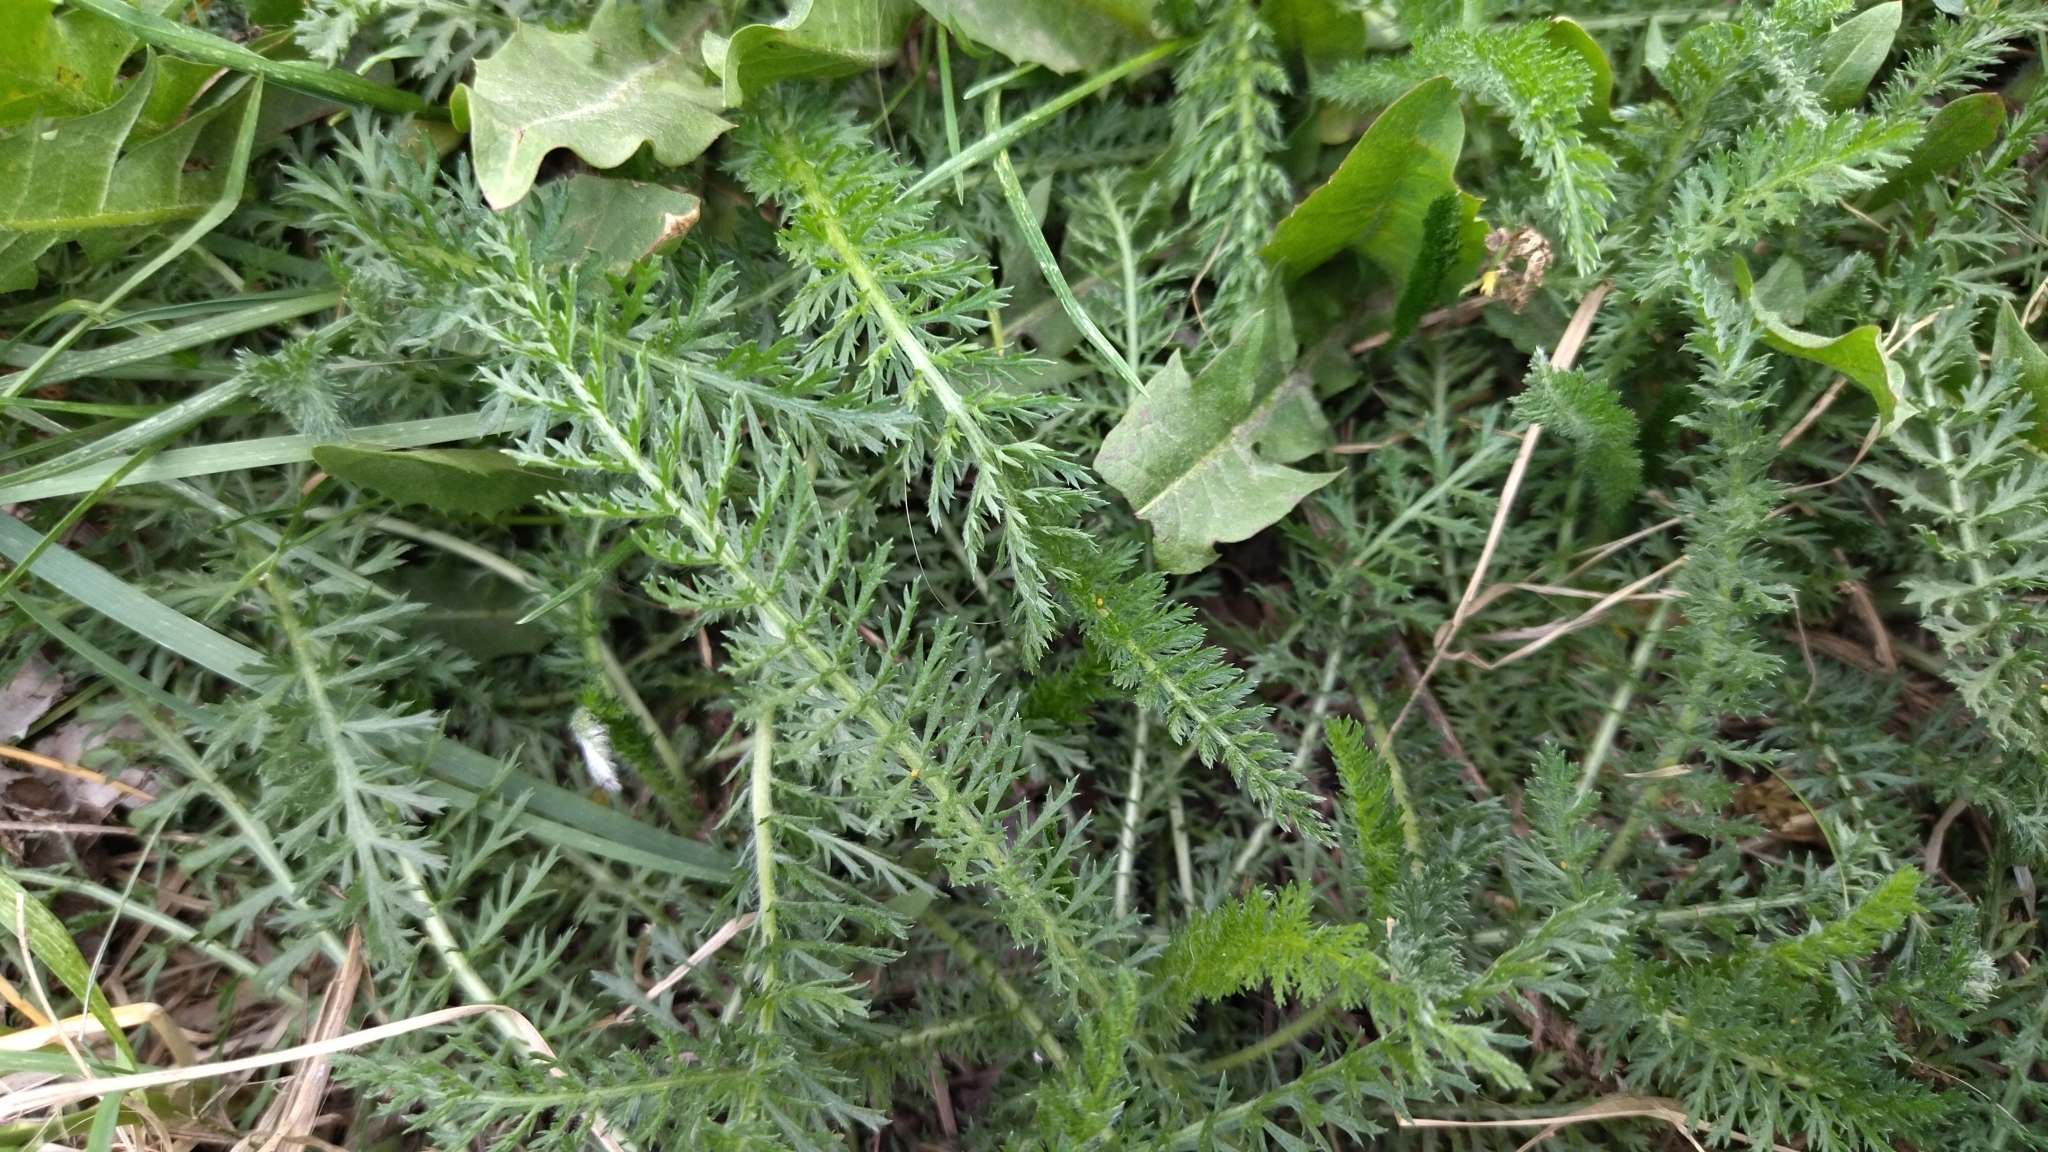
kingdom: Plantae
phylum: Tracheophyta
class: Magnoliopsida
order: Asterales
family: Asteraceae
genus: Achillea
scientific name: Achillea millefolium
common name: Yarrow
